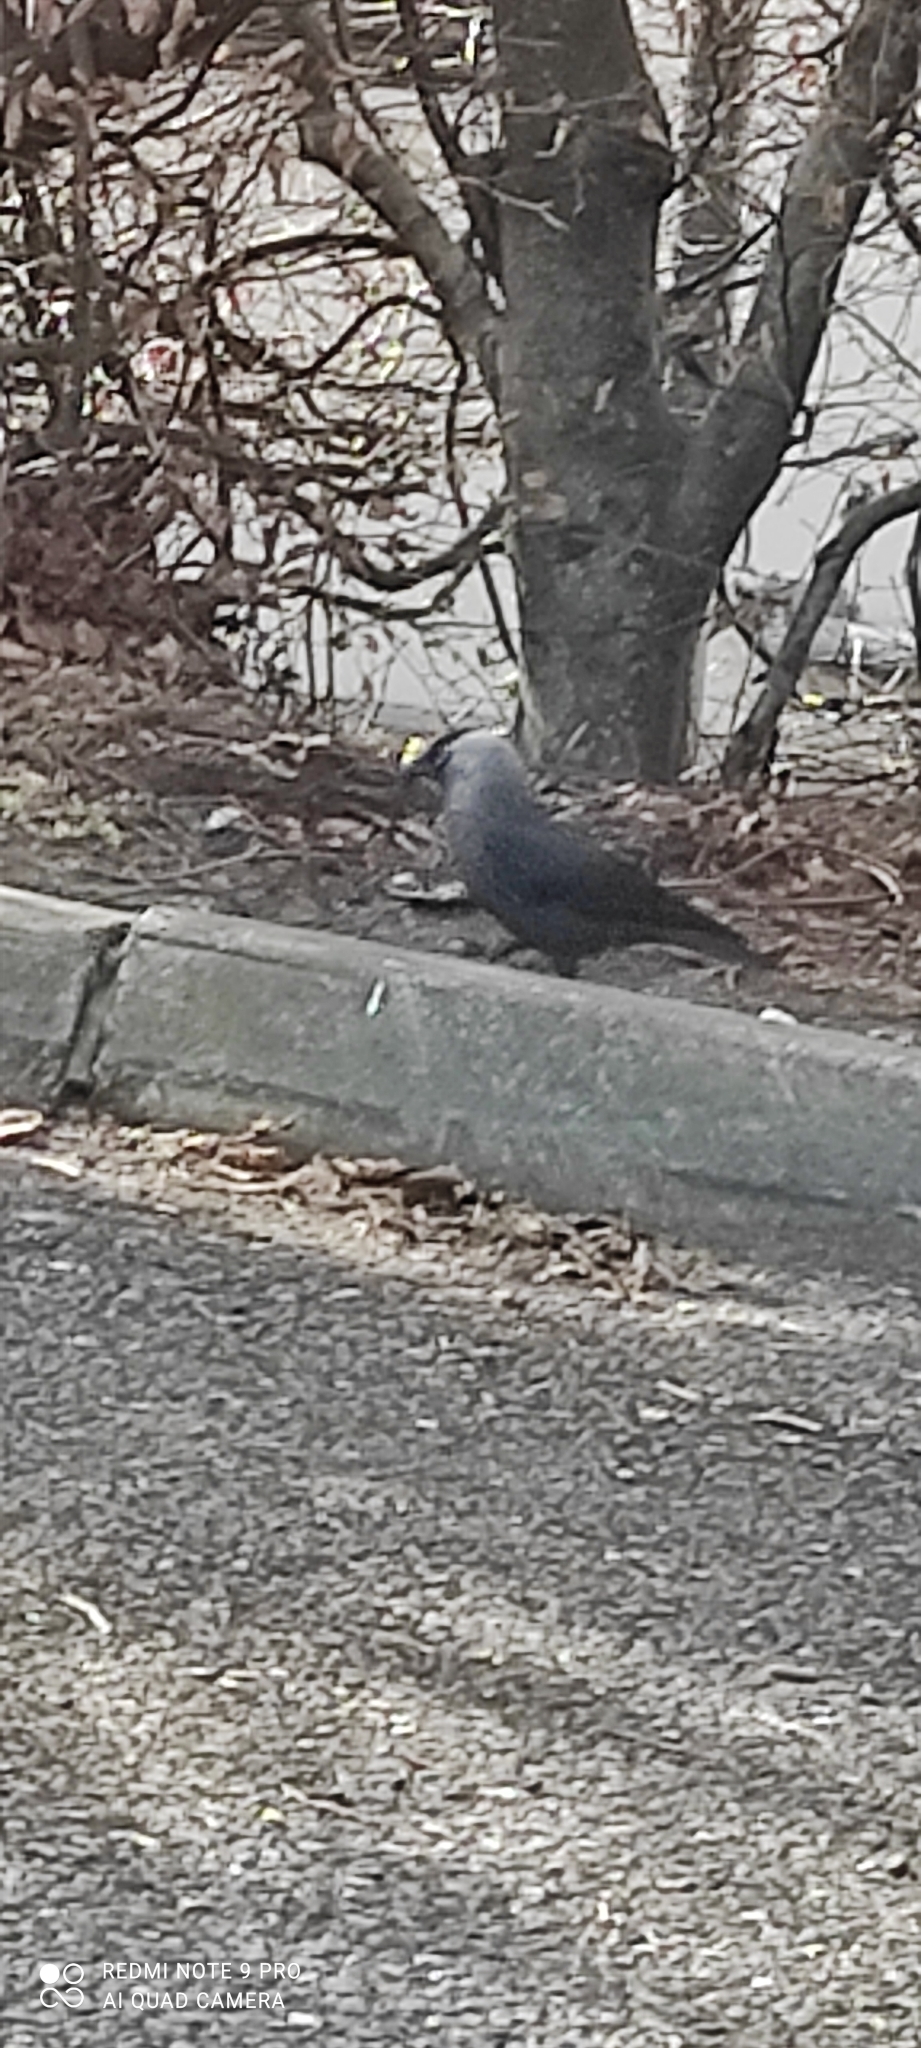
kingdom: Animalia
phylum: Chordata
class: Aves
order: Passeriformes
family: Corvidae
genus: Coloeus
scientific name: Coloeus monedula
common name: Western jackdaw
